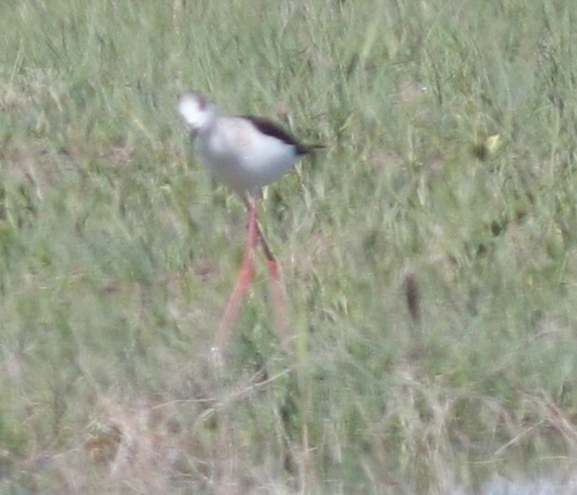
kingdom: Animalia
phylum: Chordata
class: Aves
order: Charadriiformes
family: Recurvirostridae
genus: Himantopus
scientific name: Himantopus himantopus
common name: Black-winged stilt
